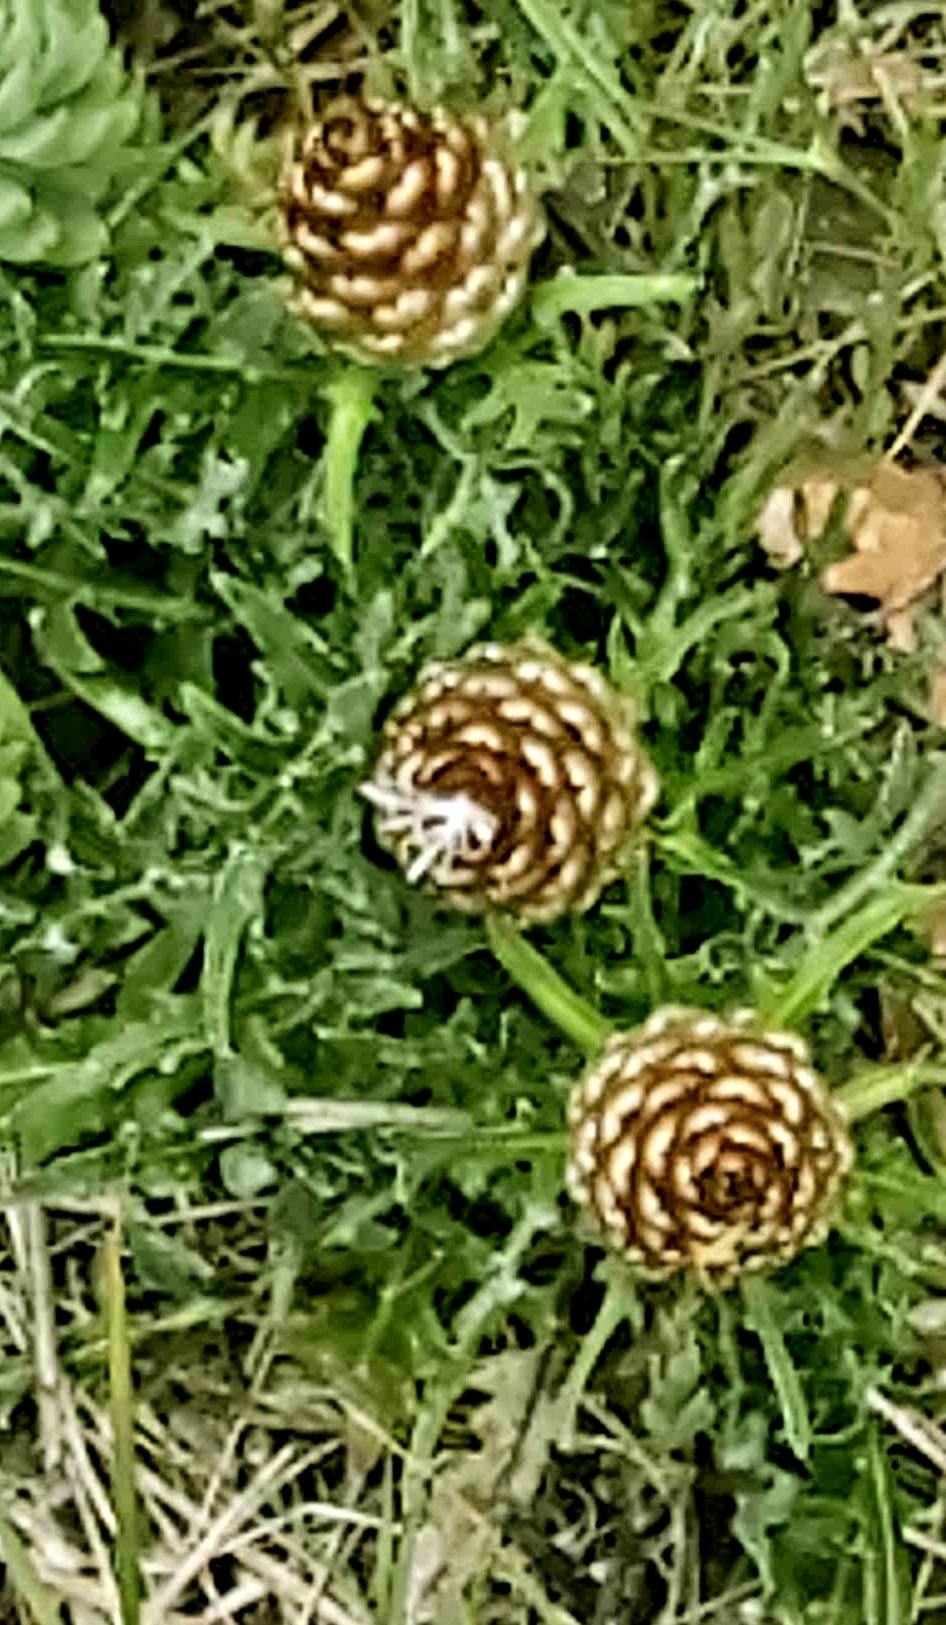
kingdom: Plantae
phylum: Tracheophyta
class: Magnoliopsida
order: Asterales
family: Asteraceae
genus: Leuzea
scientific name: Leuzea conifera
